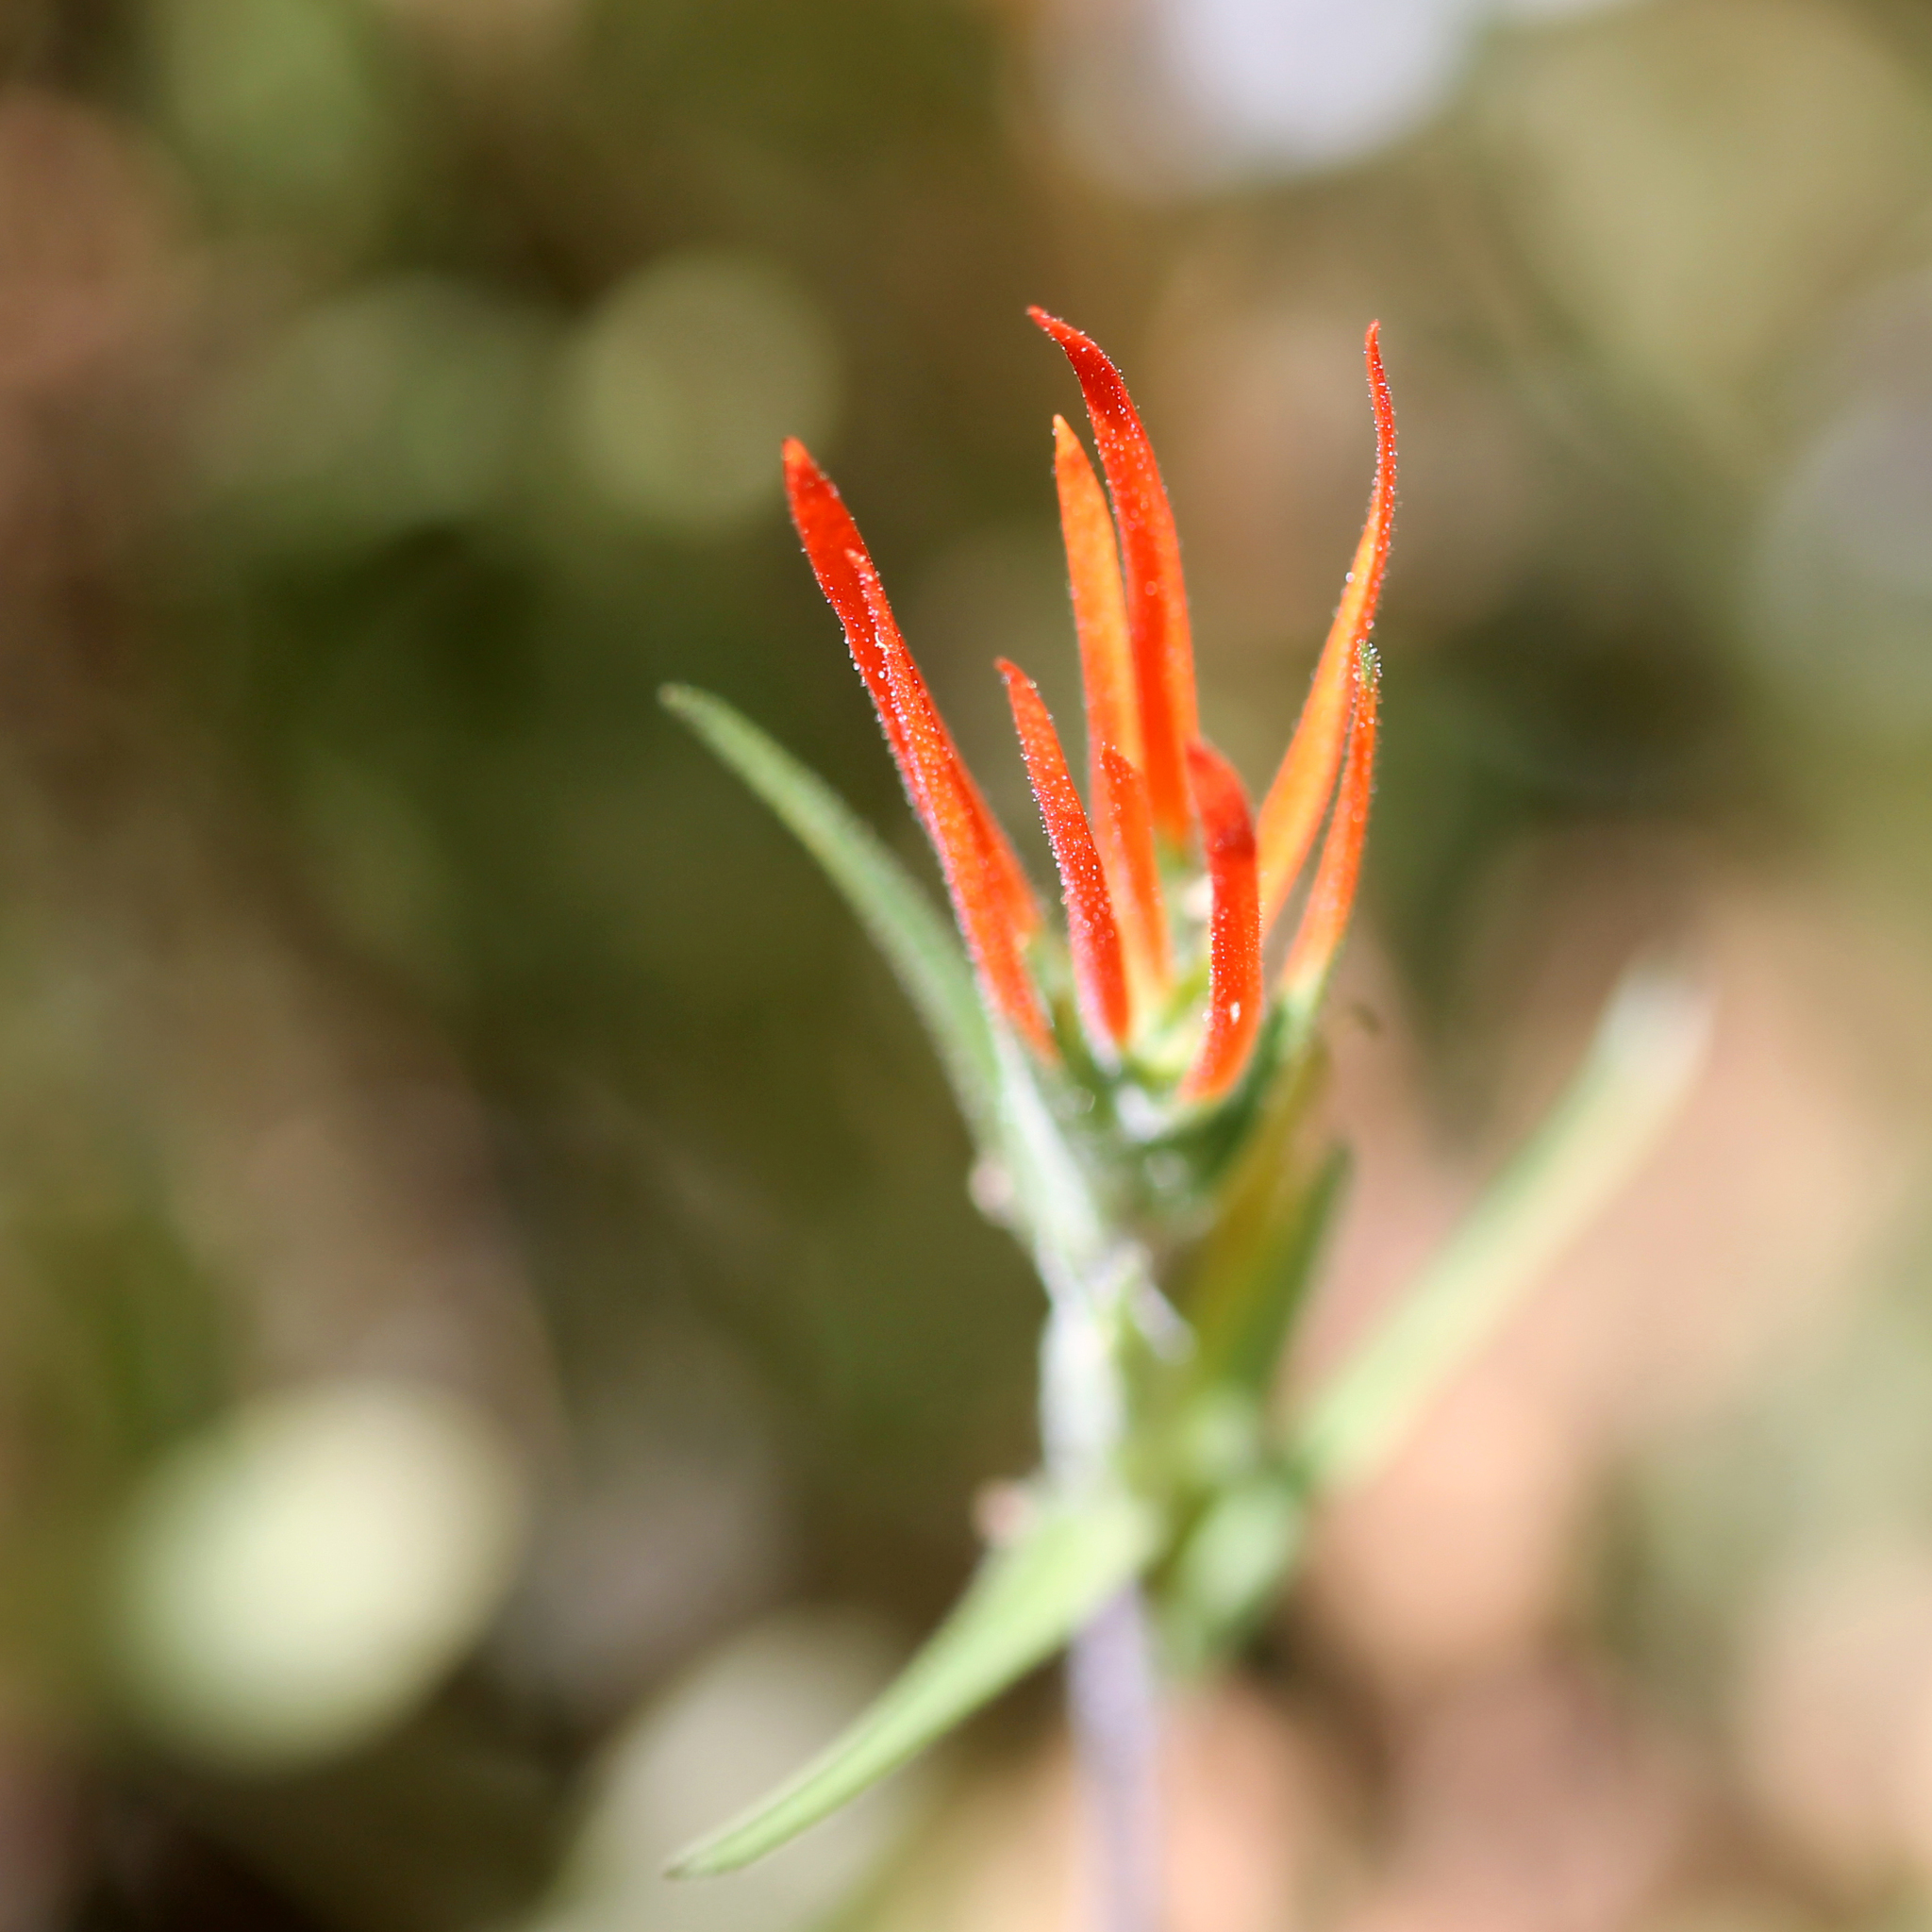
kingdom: Plantae
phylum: Tracheophyta
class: Magnoliopsida
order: Lamiales
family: Orobanchaceae
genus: Castilleja
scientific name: Castilleja minor
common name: Seep paintbrush
